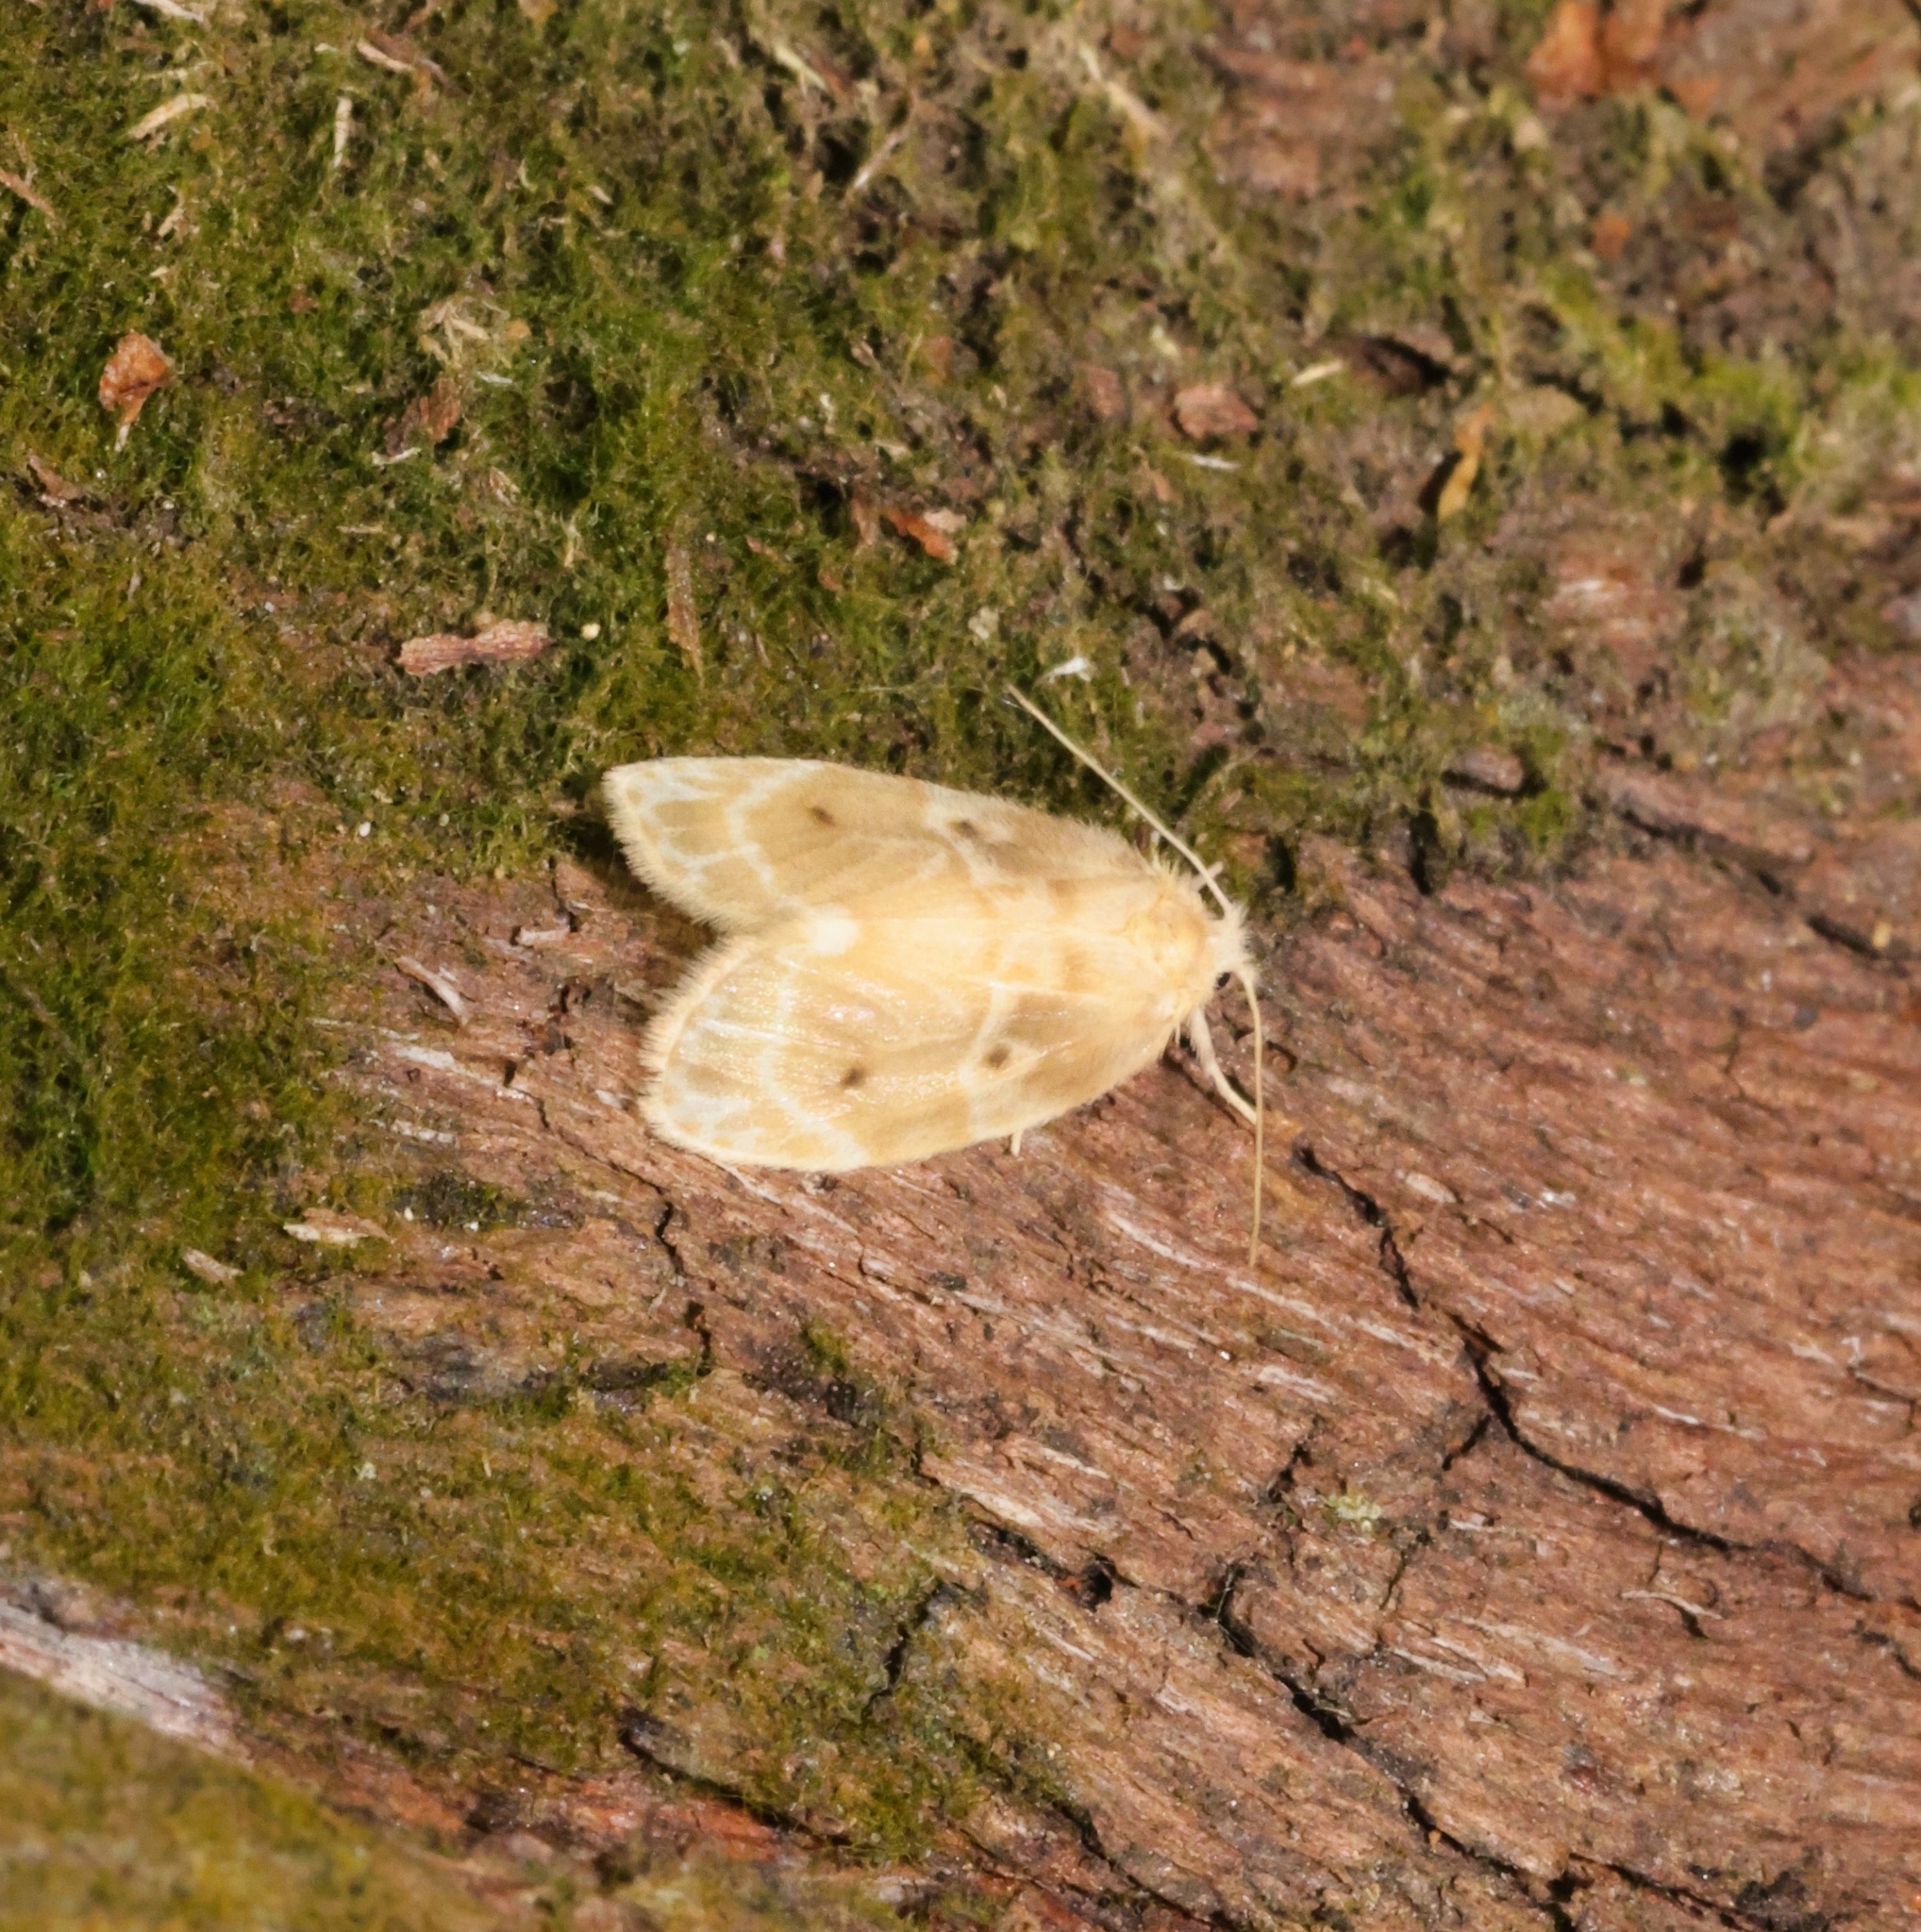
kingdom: Animalia
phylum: Arthropoda
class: Insecta
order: Lepidoptera
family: Erebidae
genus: Schistophleps
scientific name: Schistophleps bipuncta
